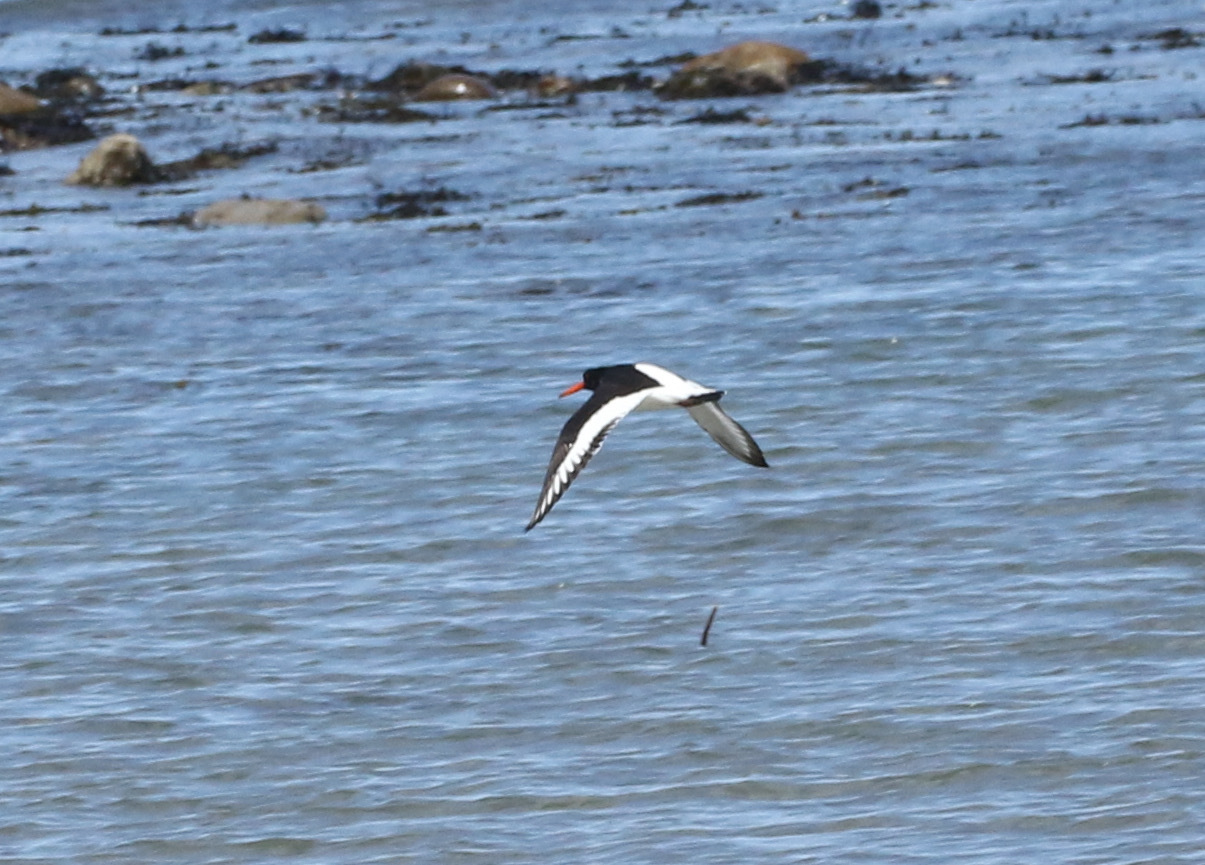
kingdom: Animalia
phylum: Chordata
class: Aves
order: Charadriiformes
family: Haematopodidae
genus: Haematopus
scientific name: Haematopus ostralegus
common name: Eurasian oystercatcher
